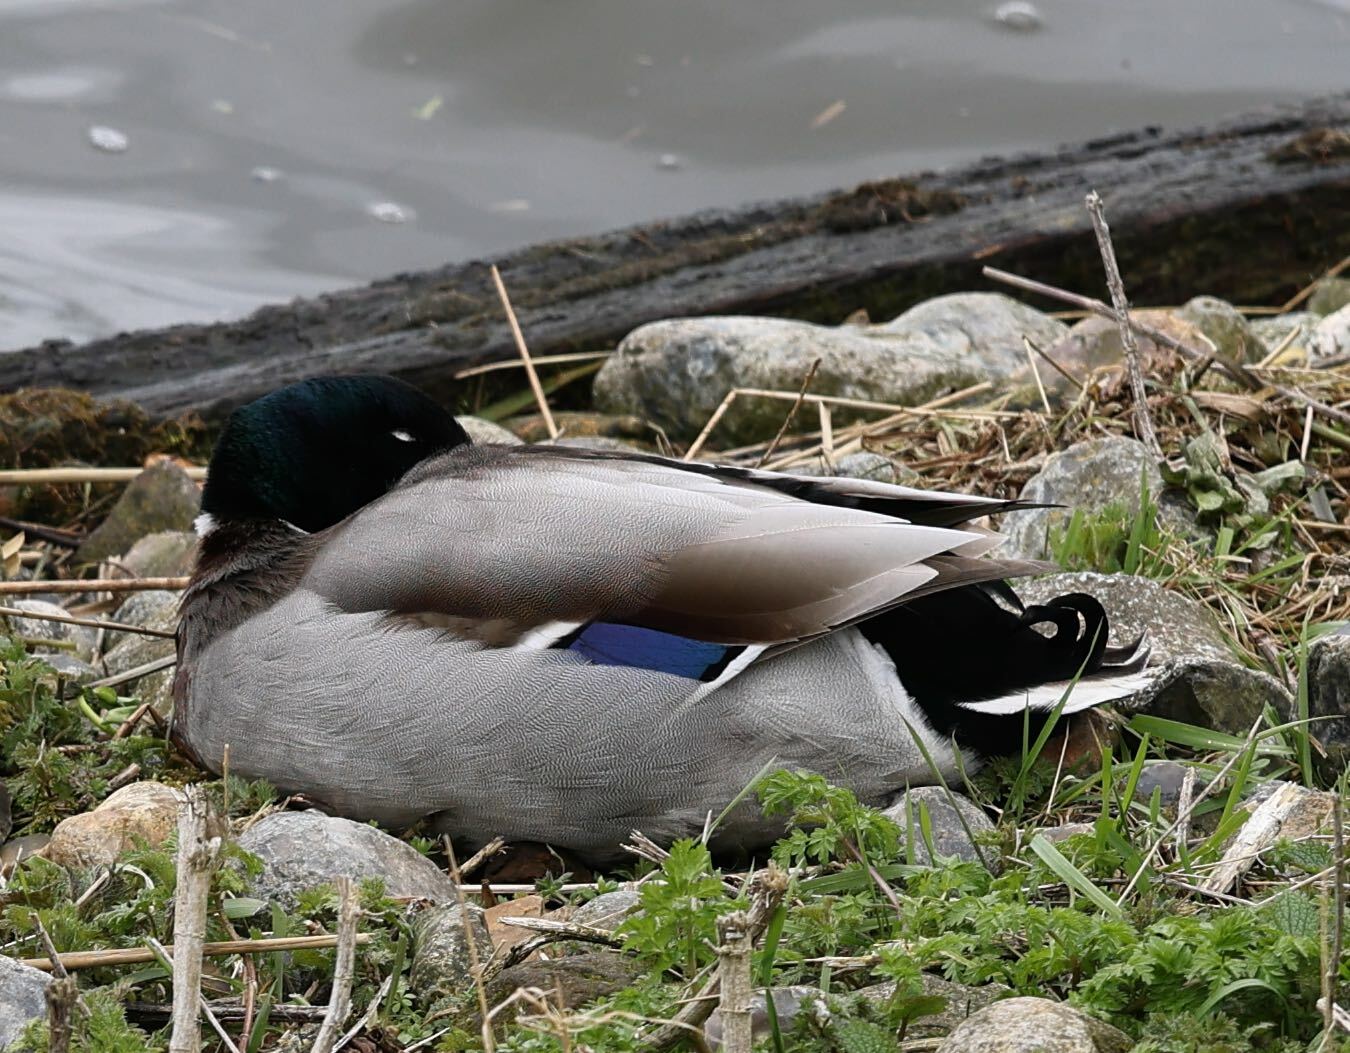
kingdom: Animalia
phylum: Chordata
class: Aves
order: Anseriformes
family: Anatidae
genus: Anas
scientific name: Anas platyrhynchos
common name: Mallard
